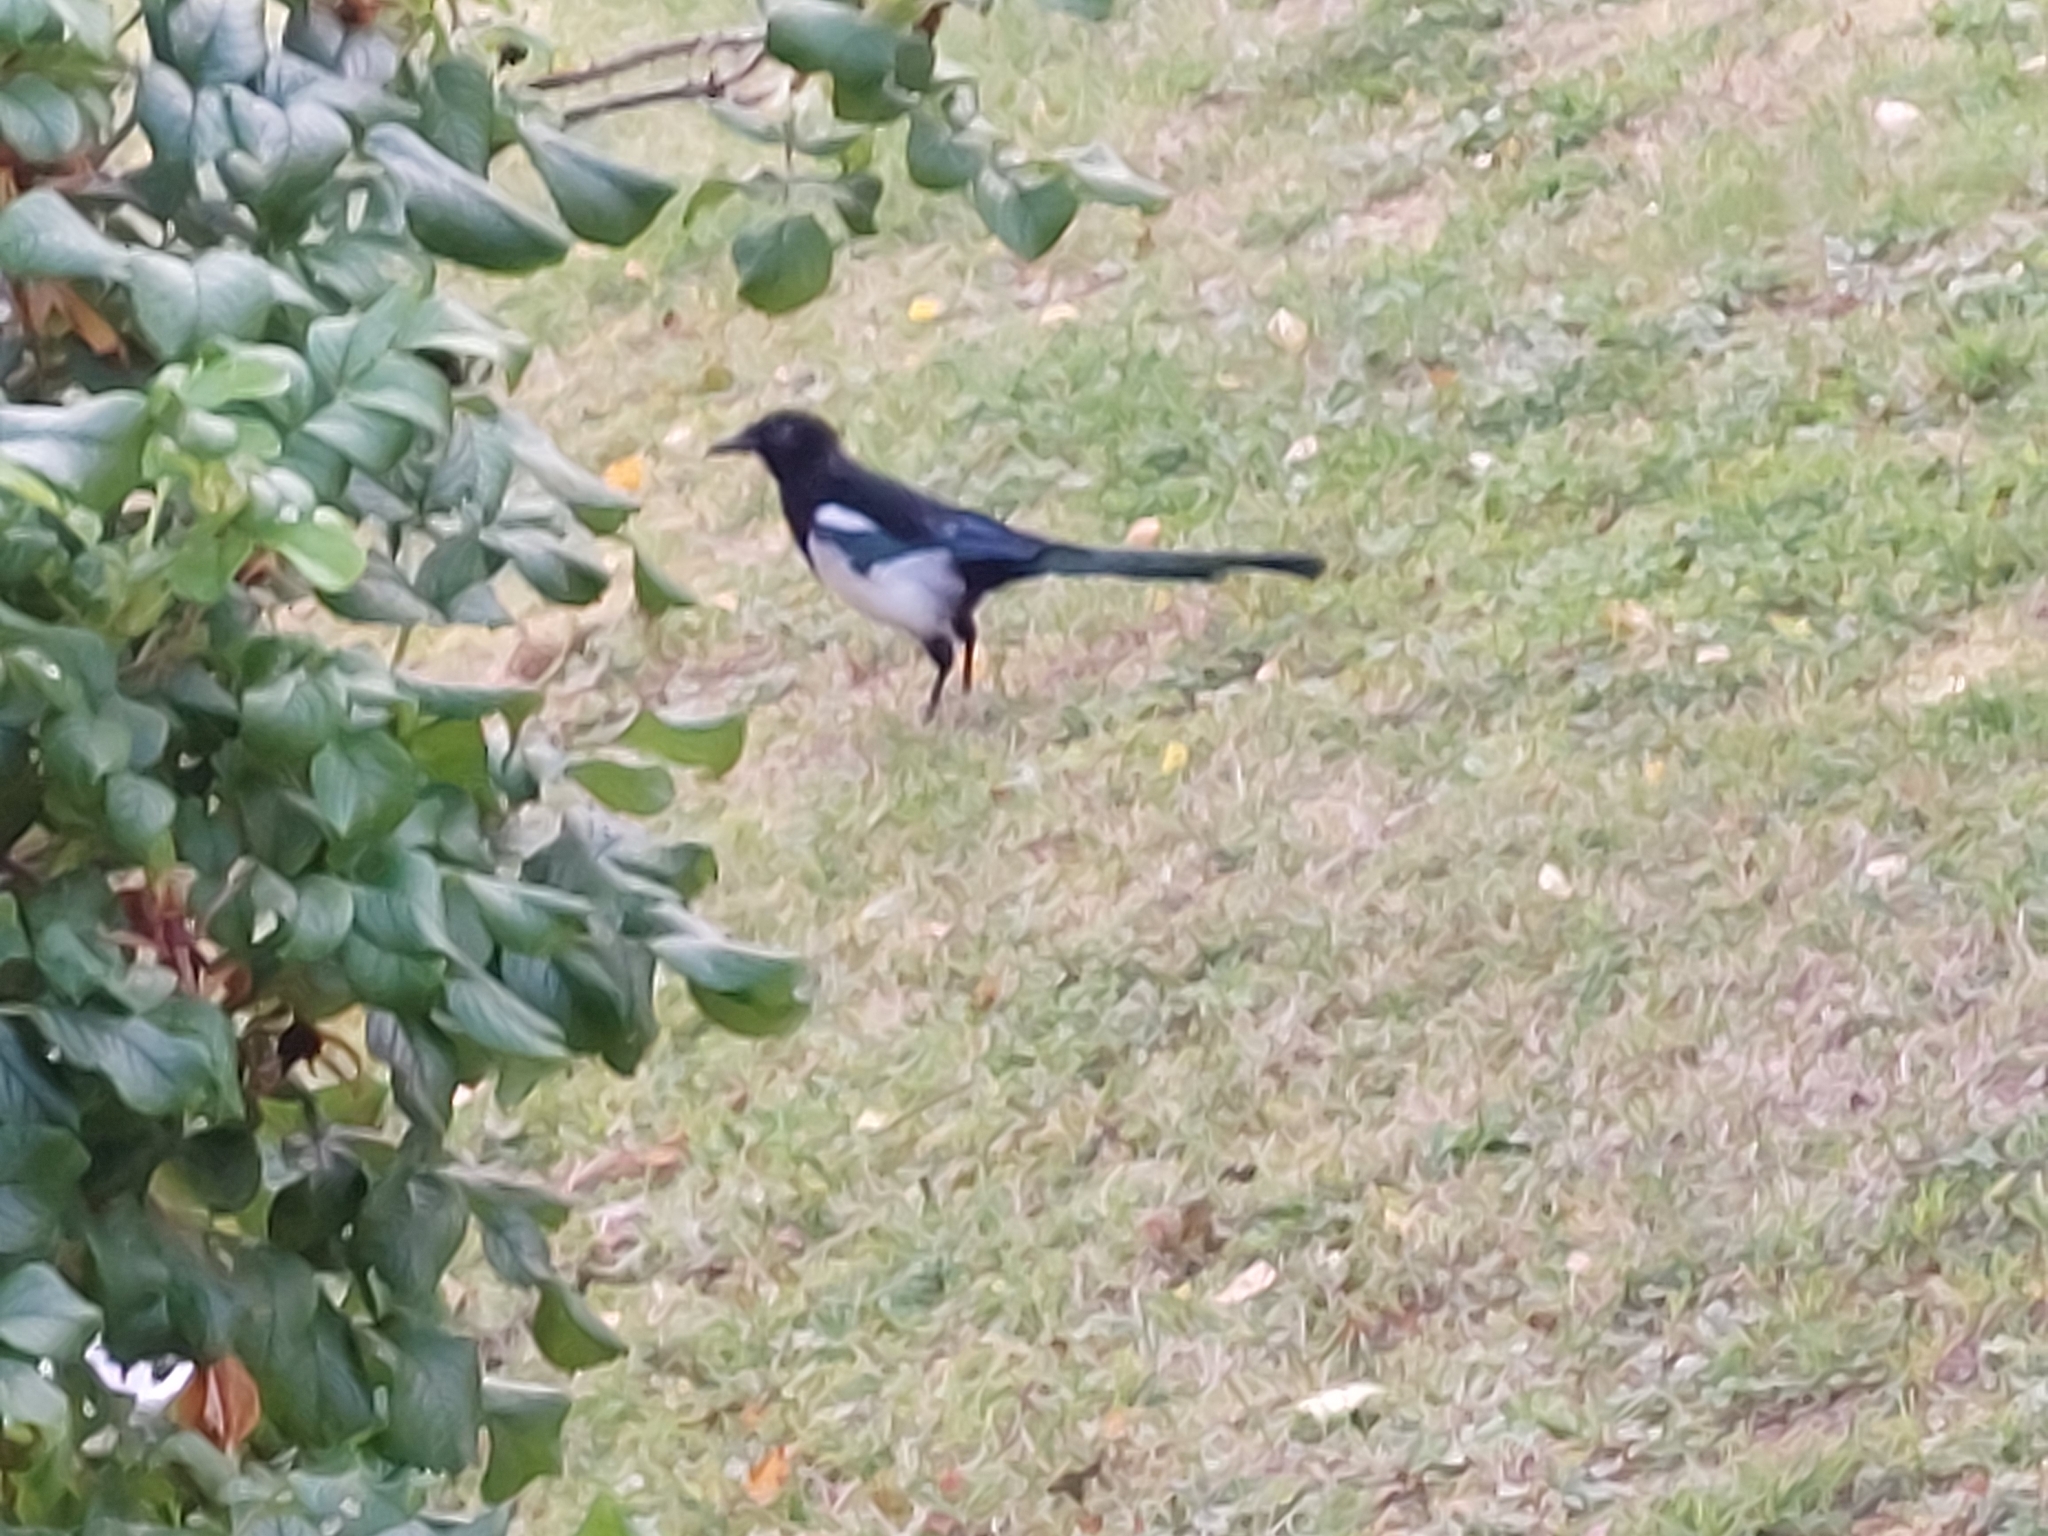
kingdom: Animalia
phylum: Chordata
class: Aves
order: Passeriformes
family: Corvidae
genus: Pica
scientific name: Pica pica
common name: Eurasian magpie
